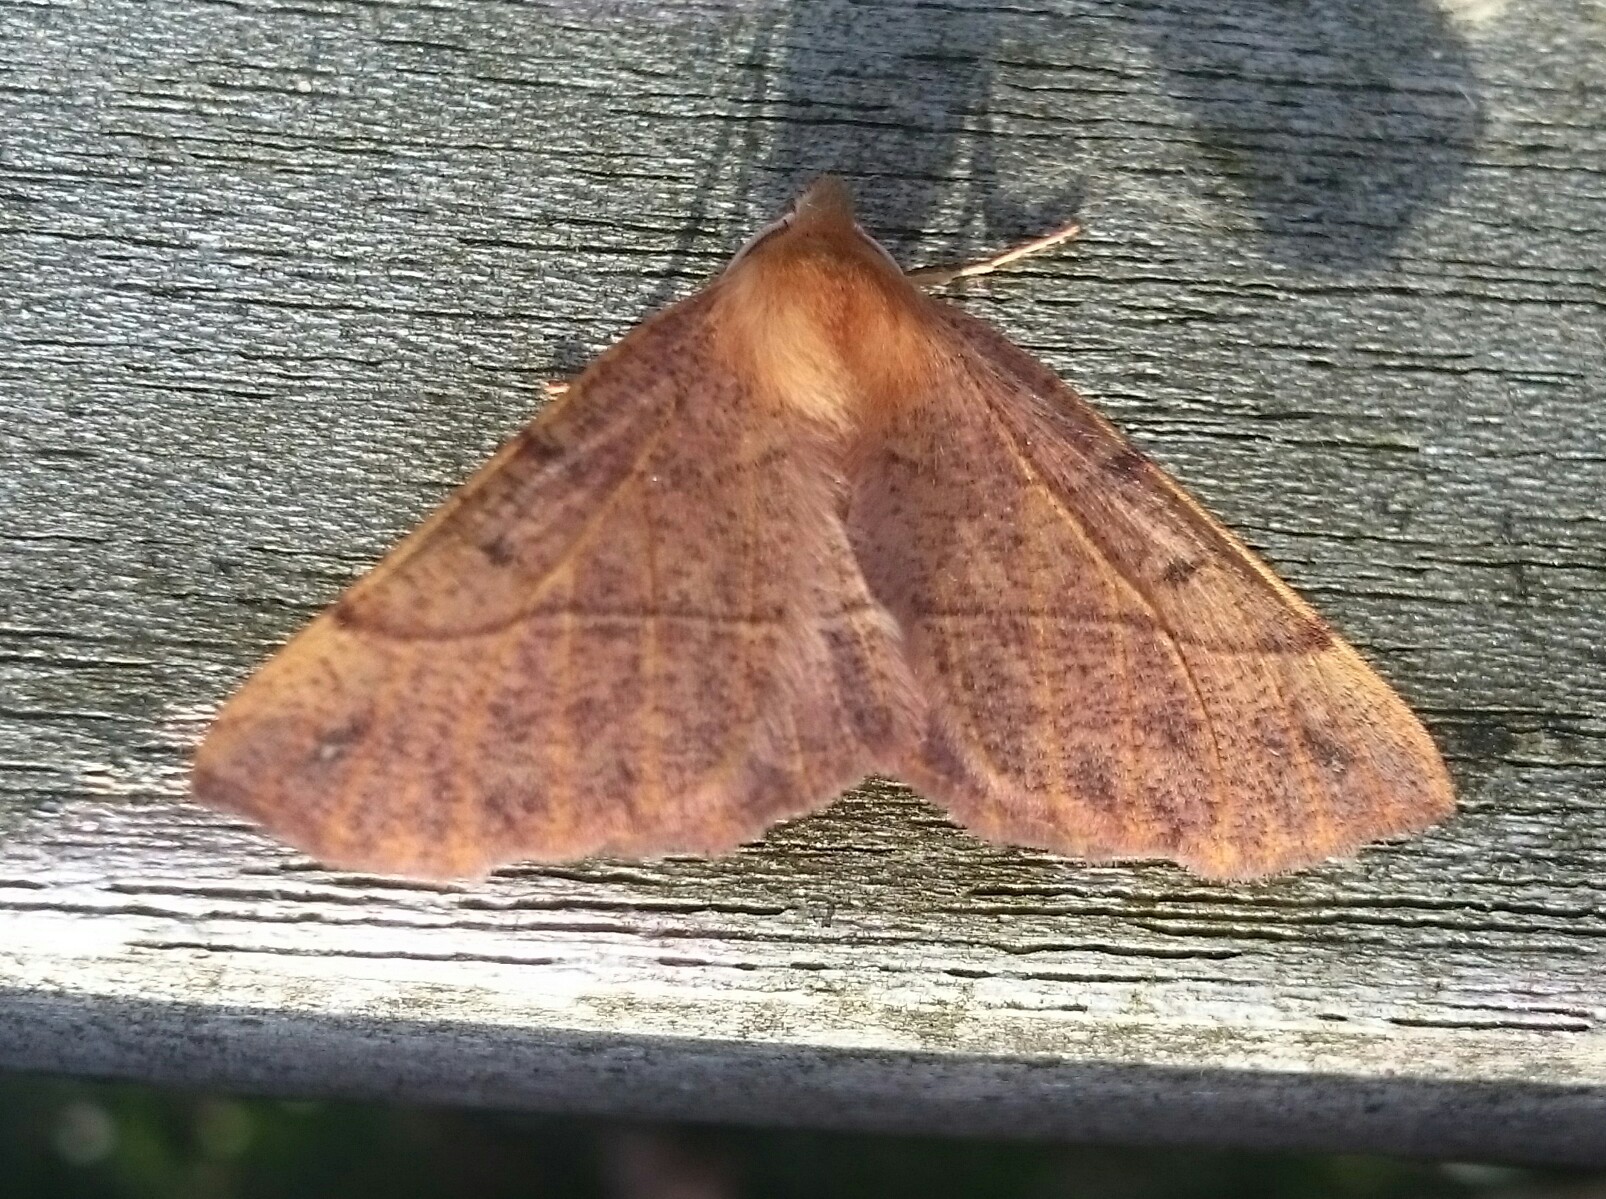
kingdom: Animalia
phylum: Arthropoda
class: Insecta
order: Lepidoptera
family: Geometridae
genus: Colotois
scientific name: Colotois pennaria
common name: Feathered thorn
